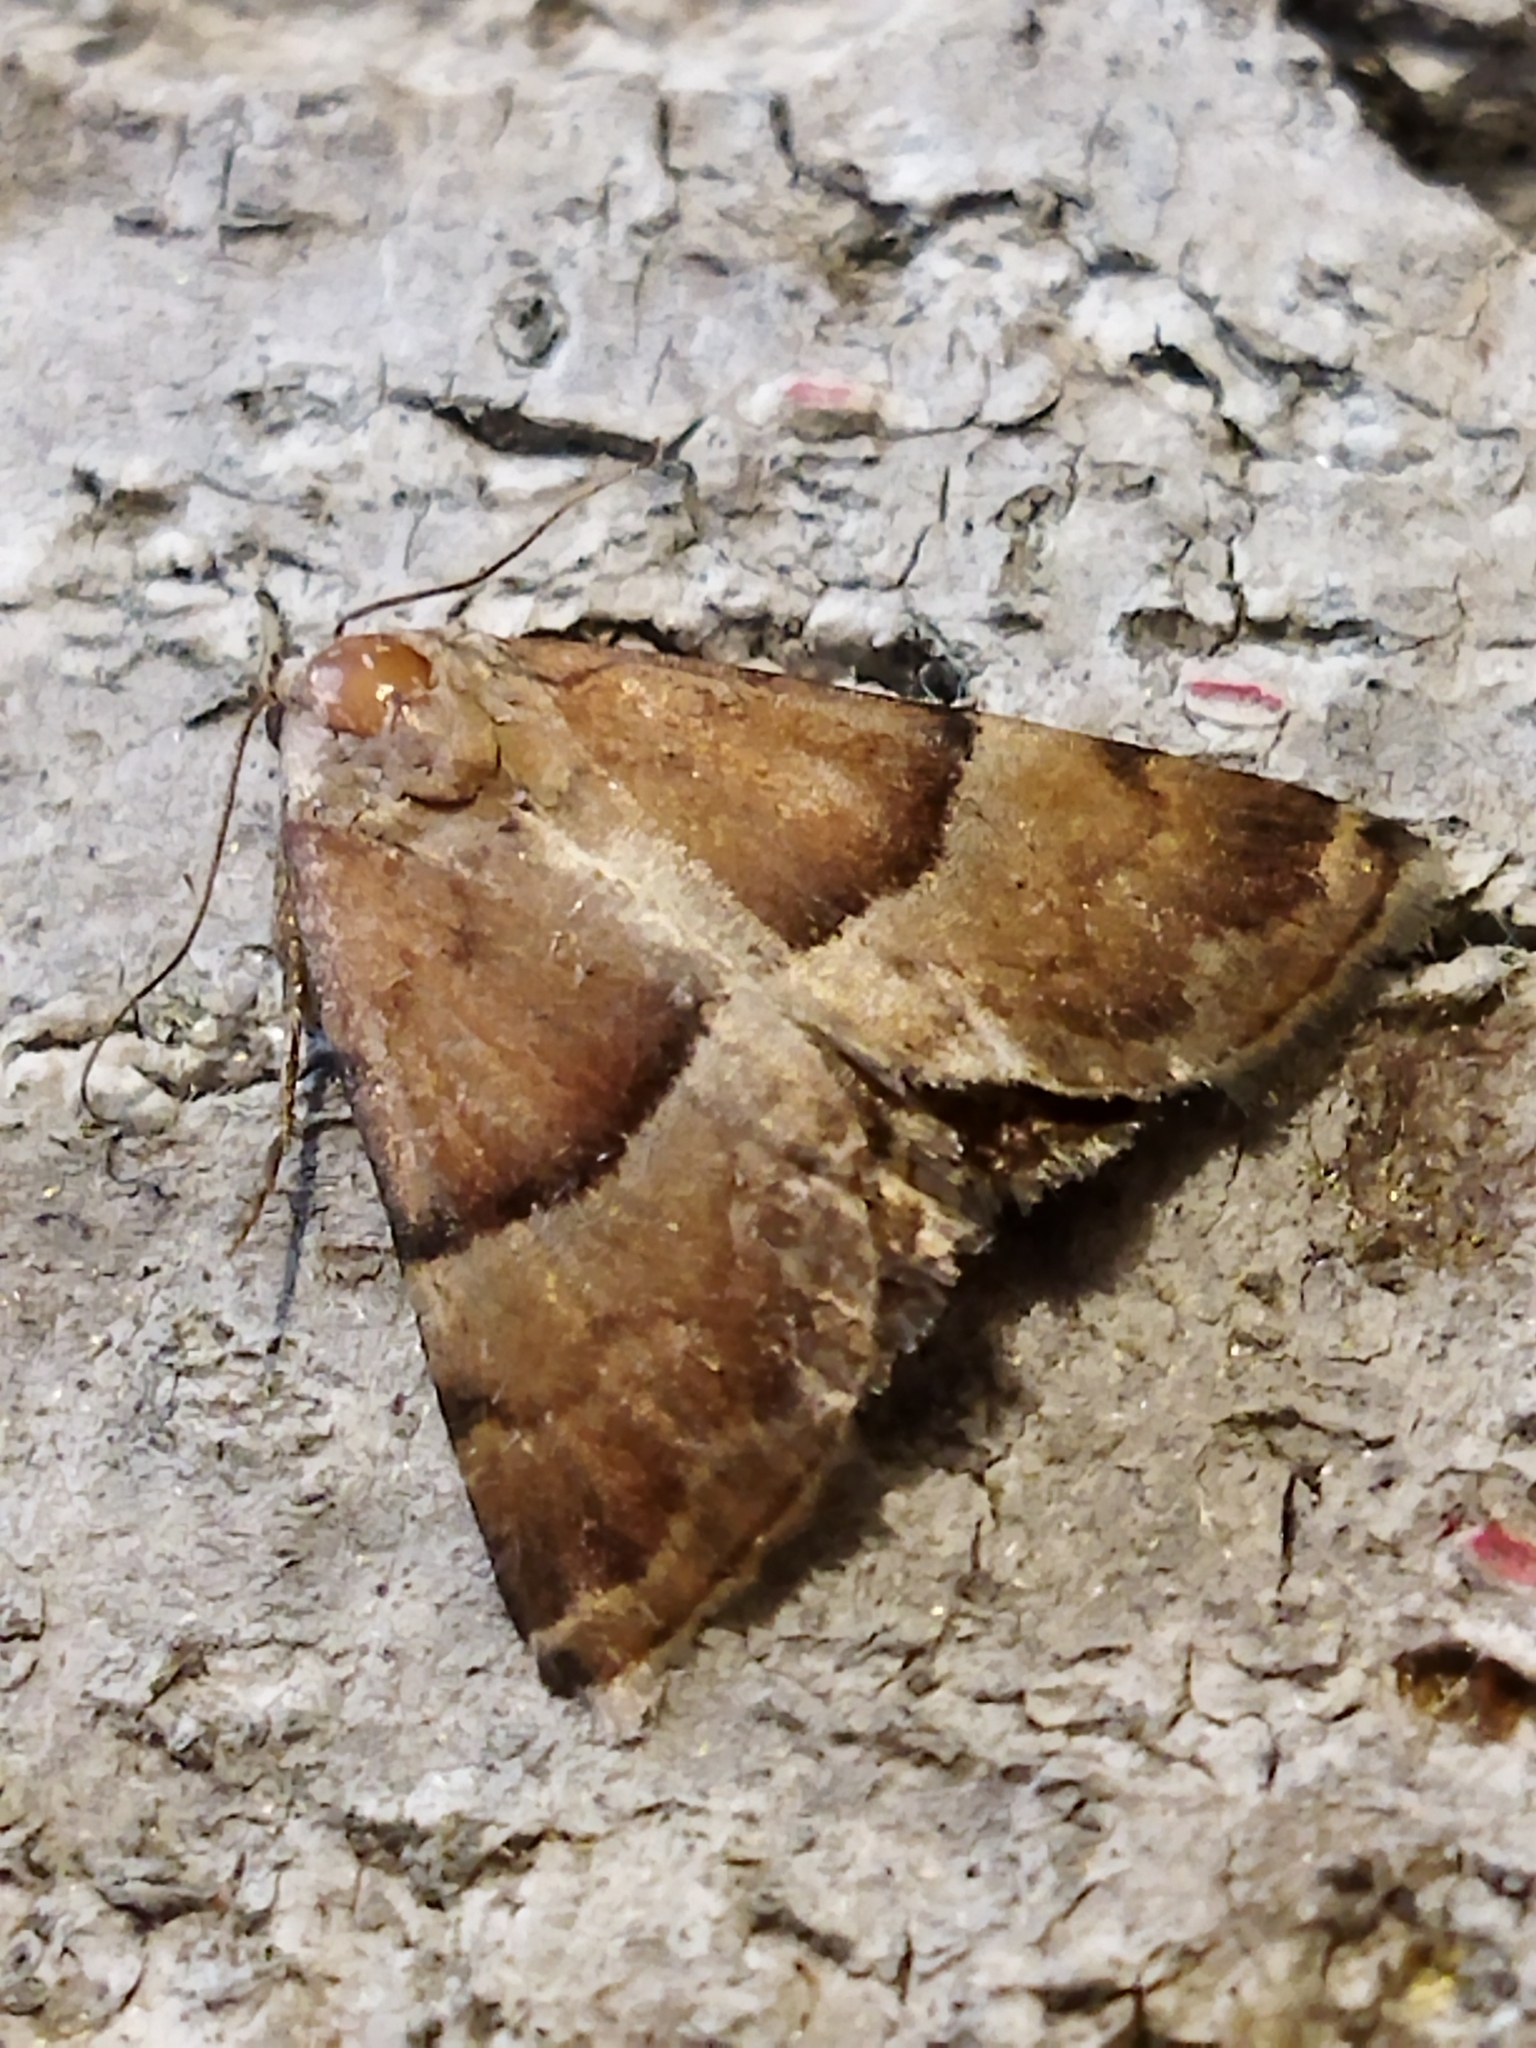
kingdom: Animalia
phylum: Arthropoda
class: Insecta
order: Lepidoptera
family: Noctuidae
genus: Odice
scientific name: Odice suava
